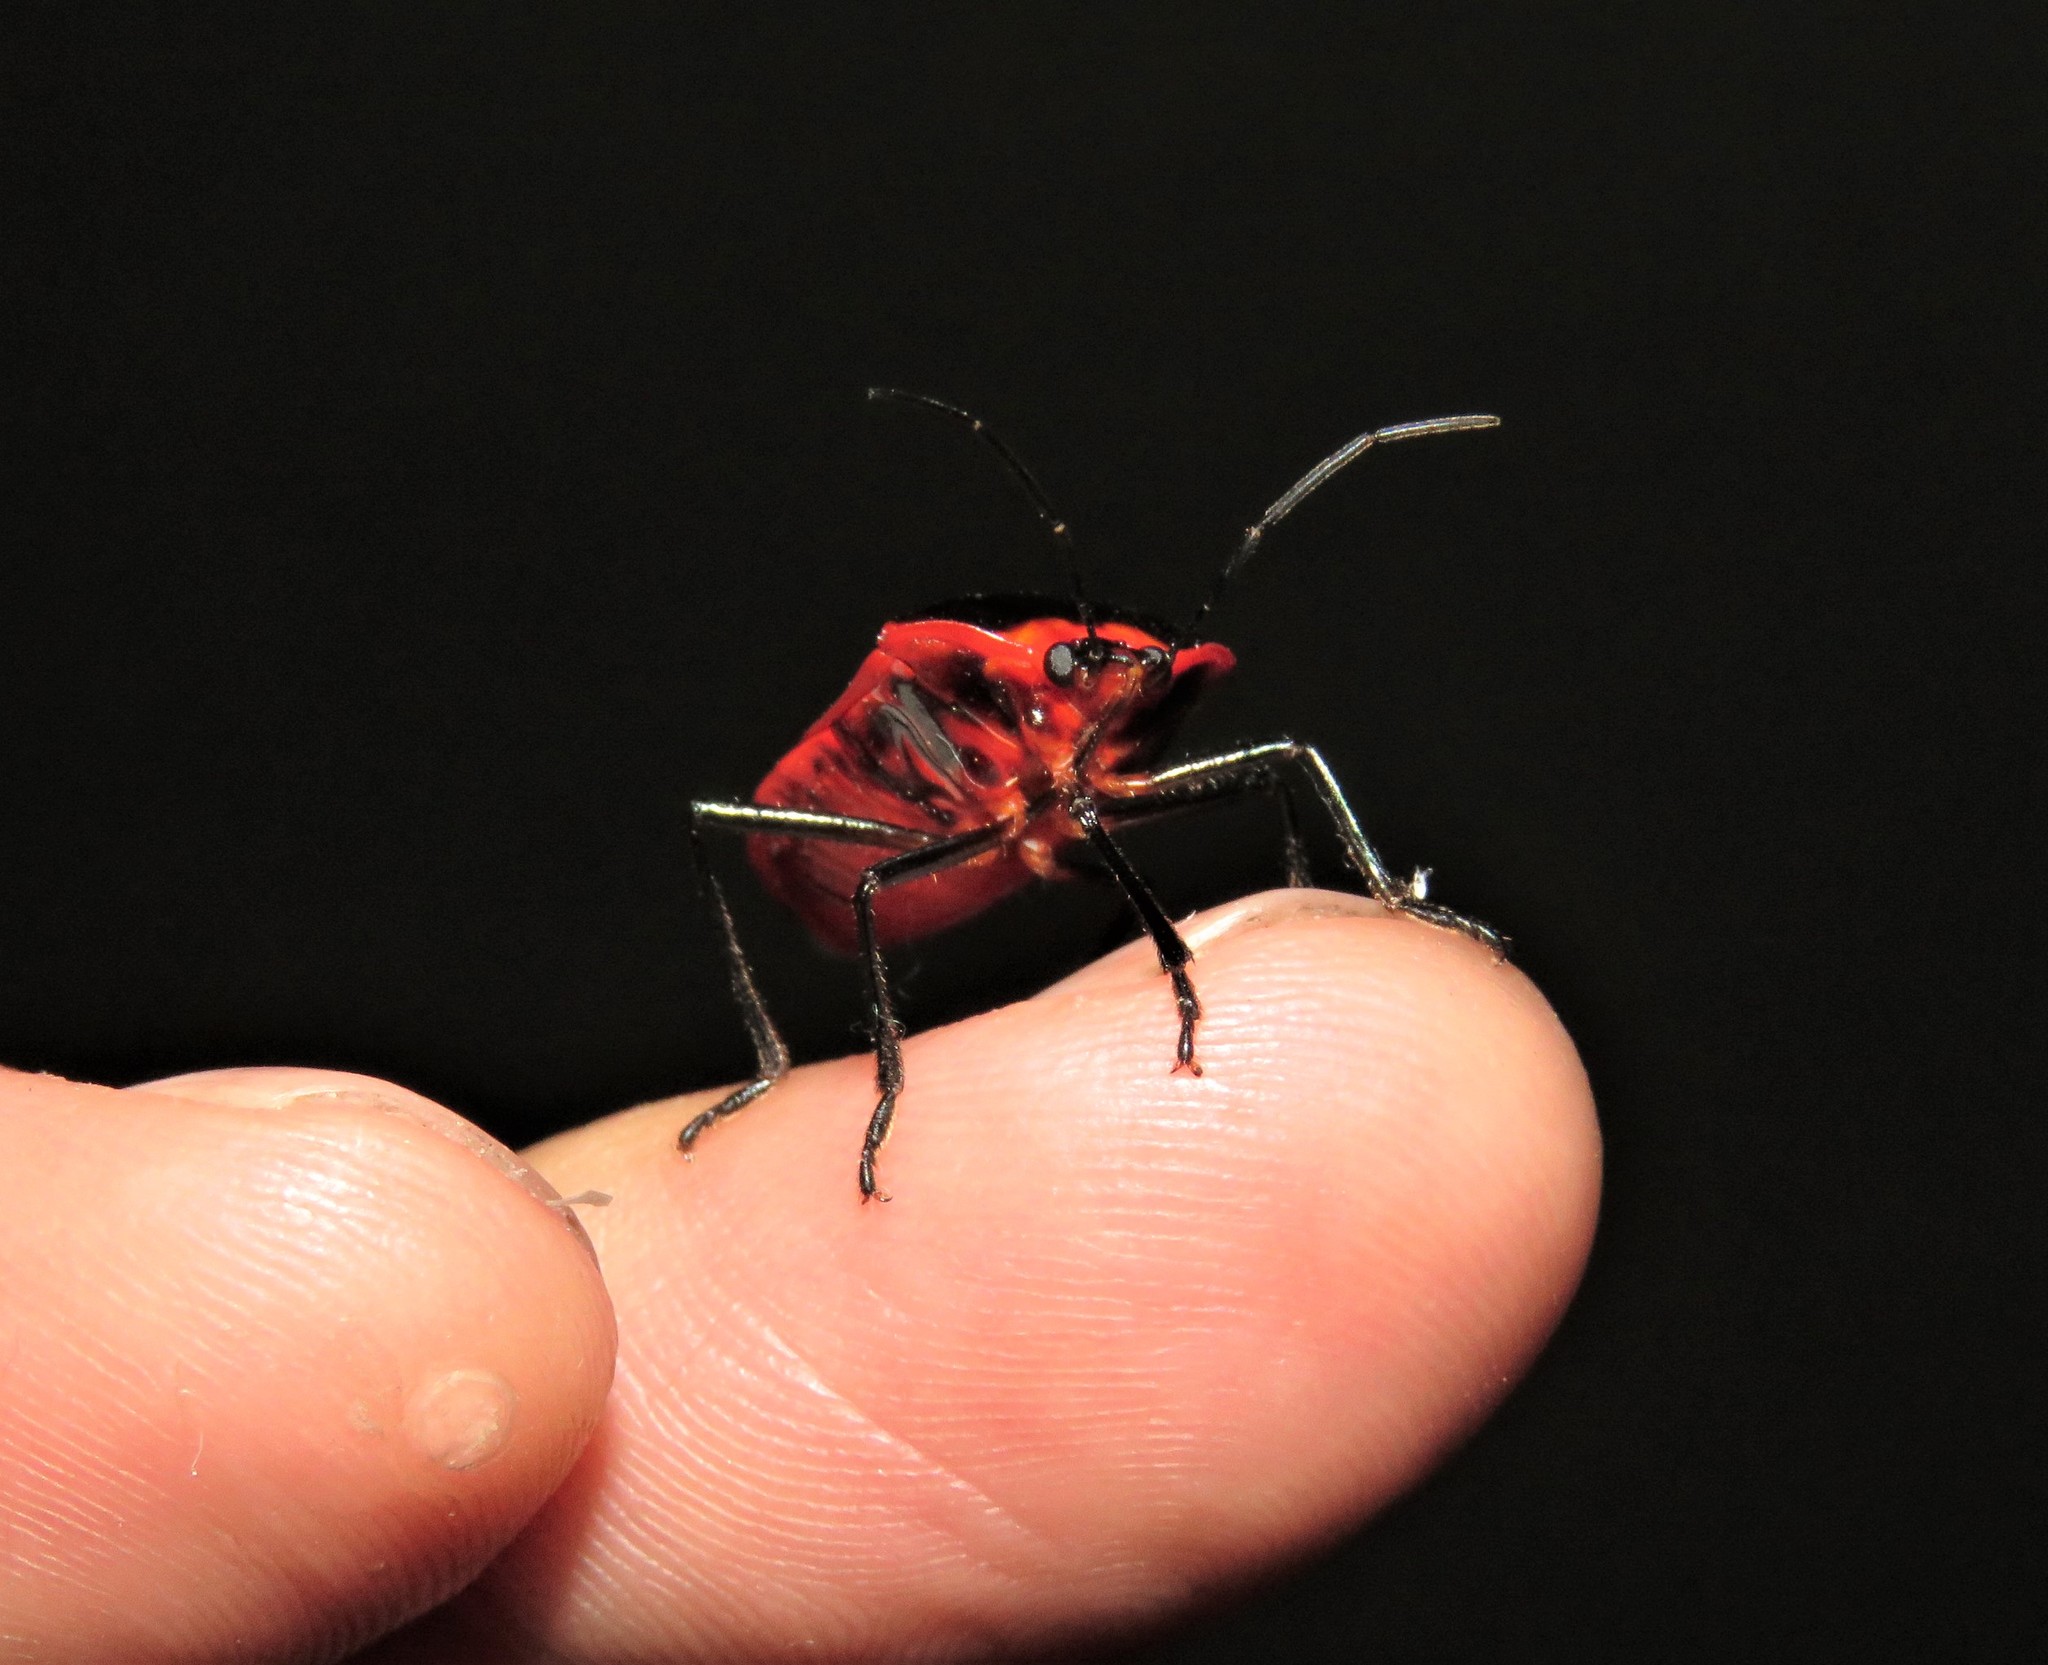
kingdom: Animalia
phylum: Arthropoda
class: Insecta
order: Hemiptera
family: Pentatomidae
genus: Rhyssocephala
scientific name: Rhyssocephala
